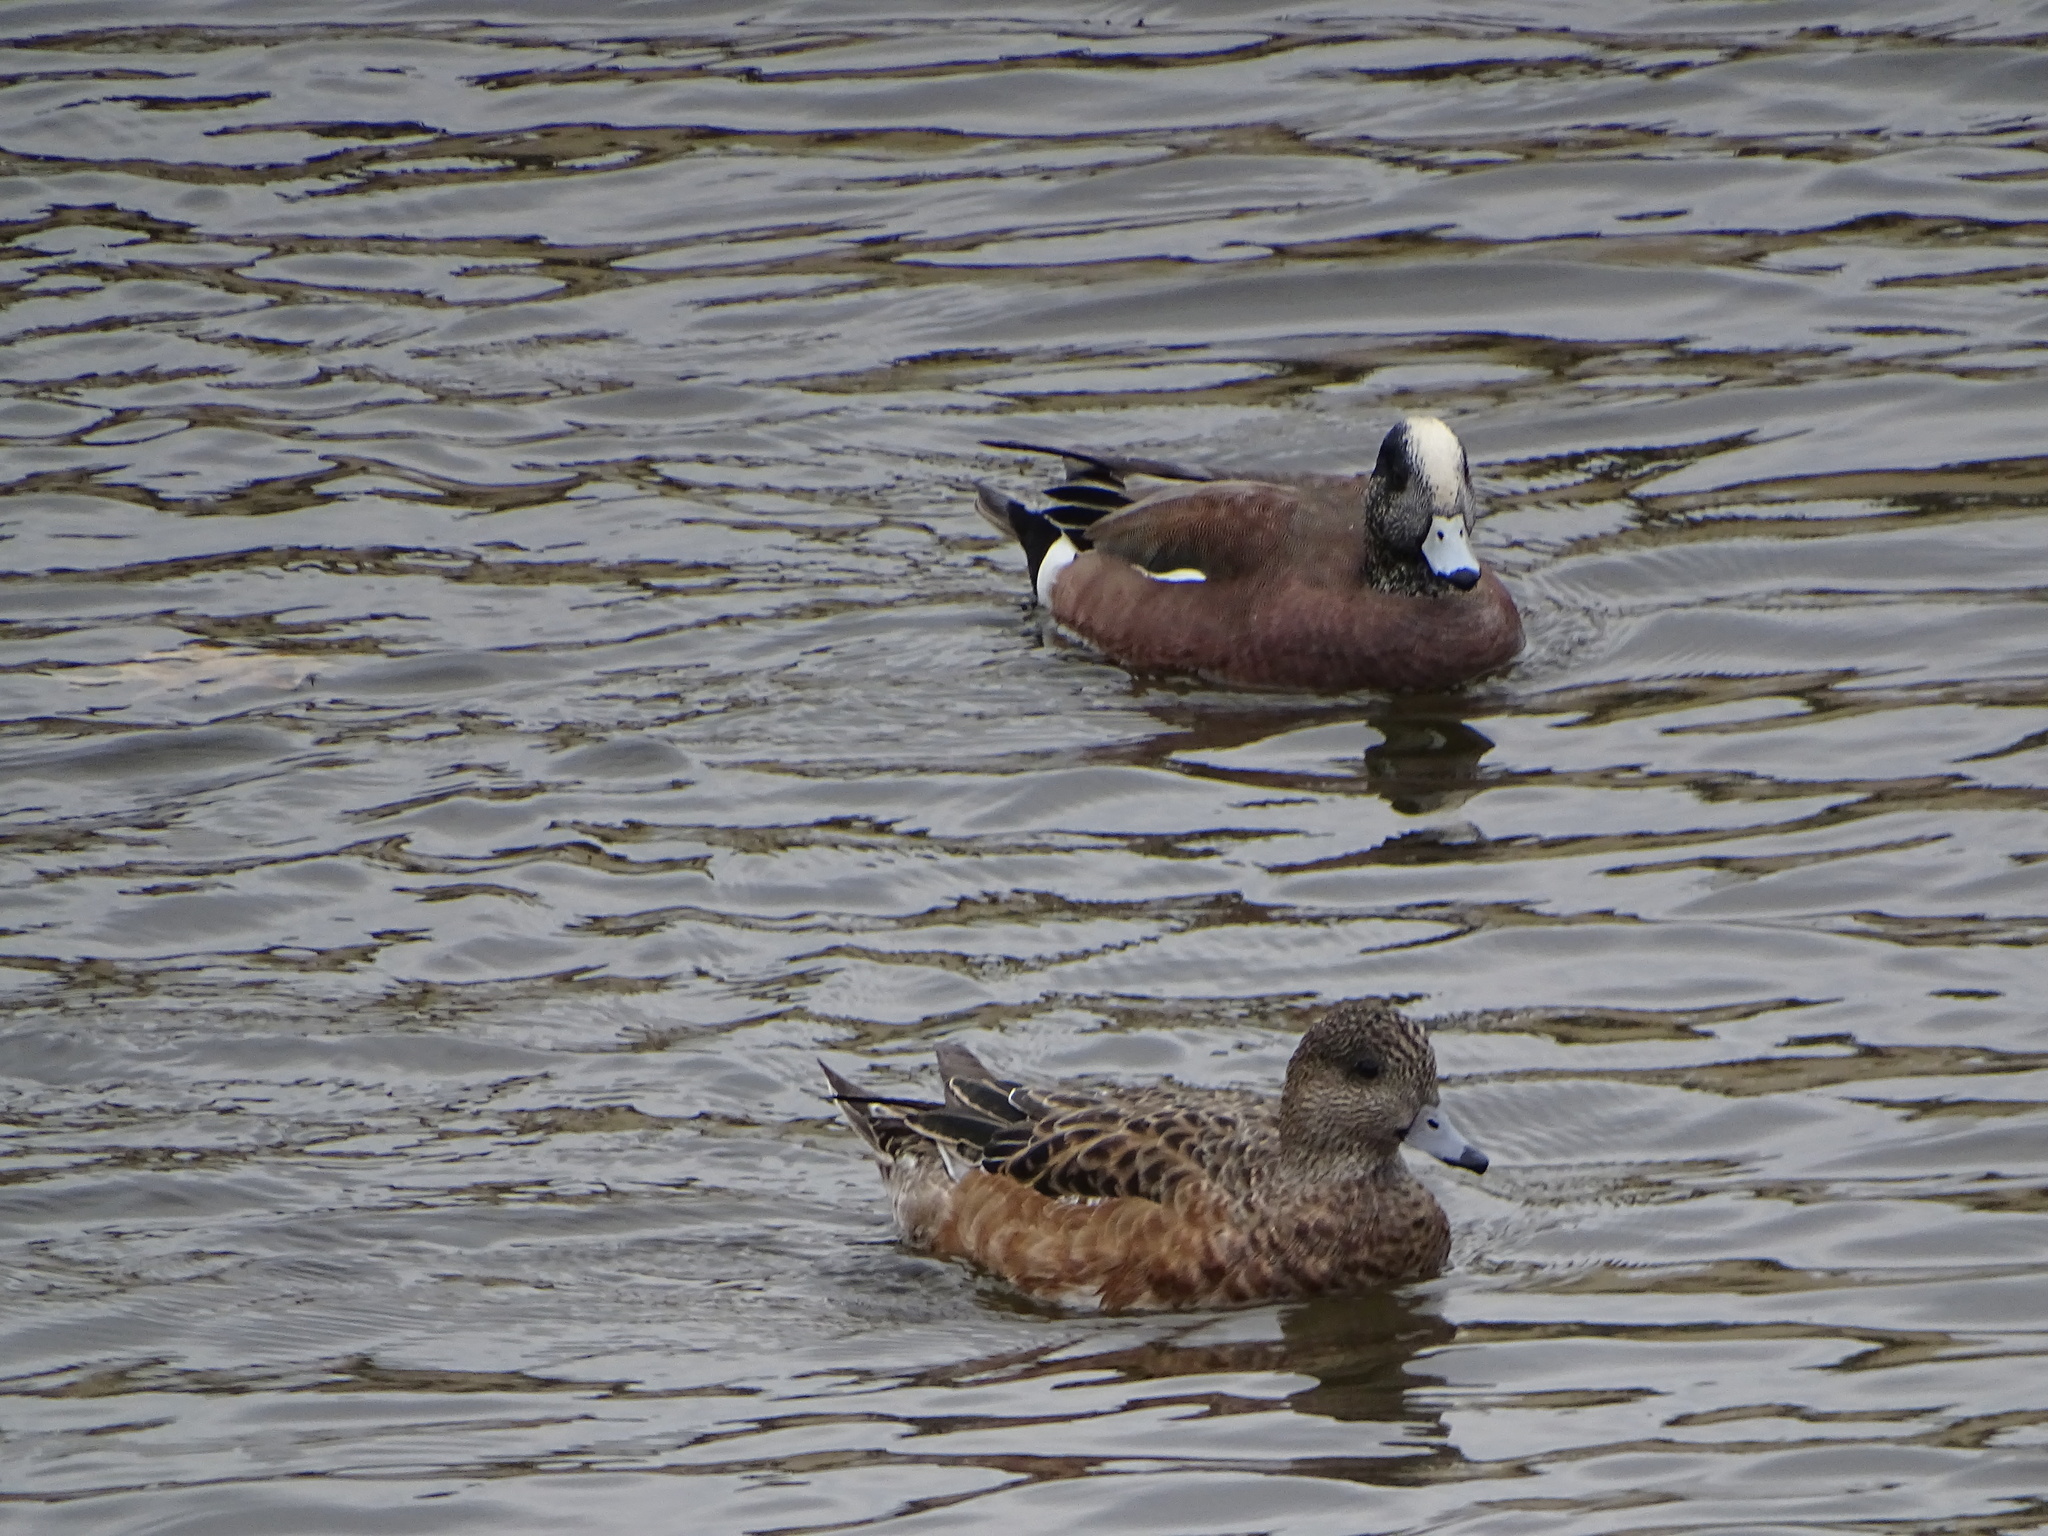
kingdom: Animalia
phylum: Chordata
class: Aves
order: Anseriformes
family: Anatidae
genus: Mareca
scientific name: Mareca americana
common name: American wigeon
